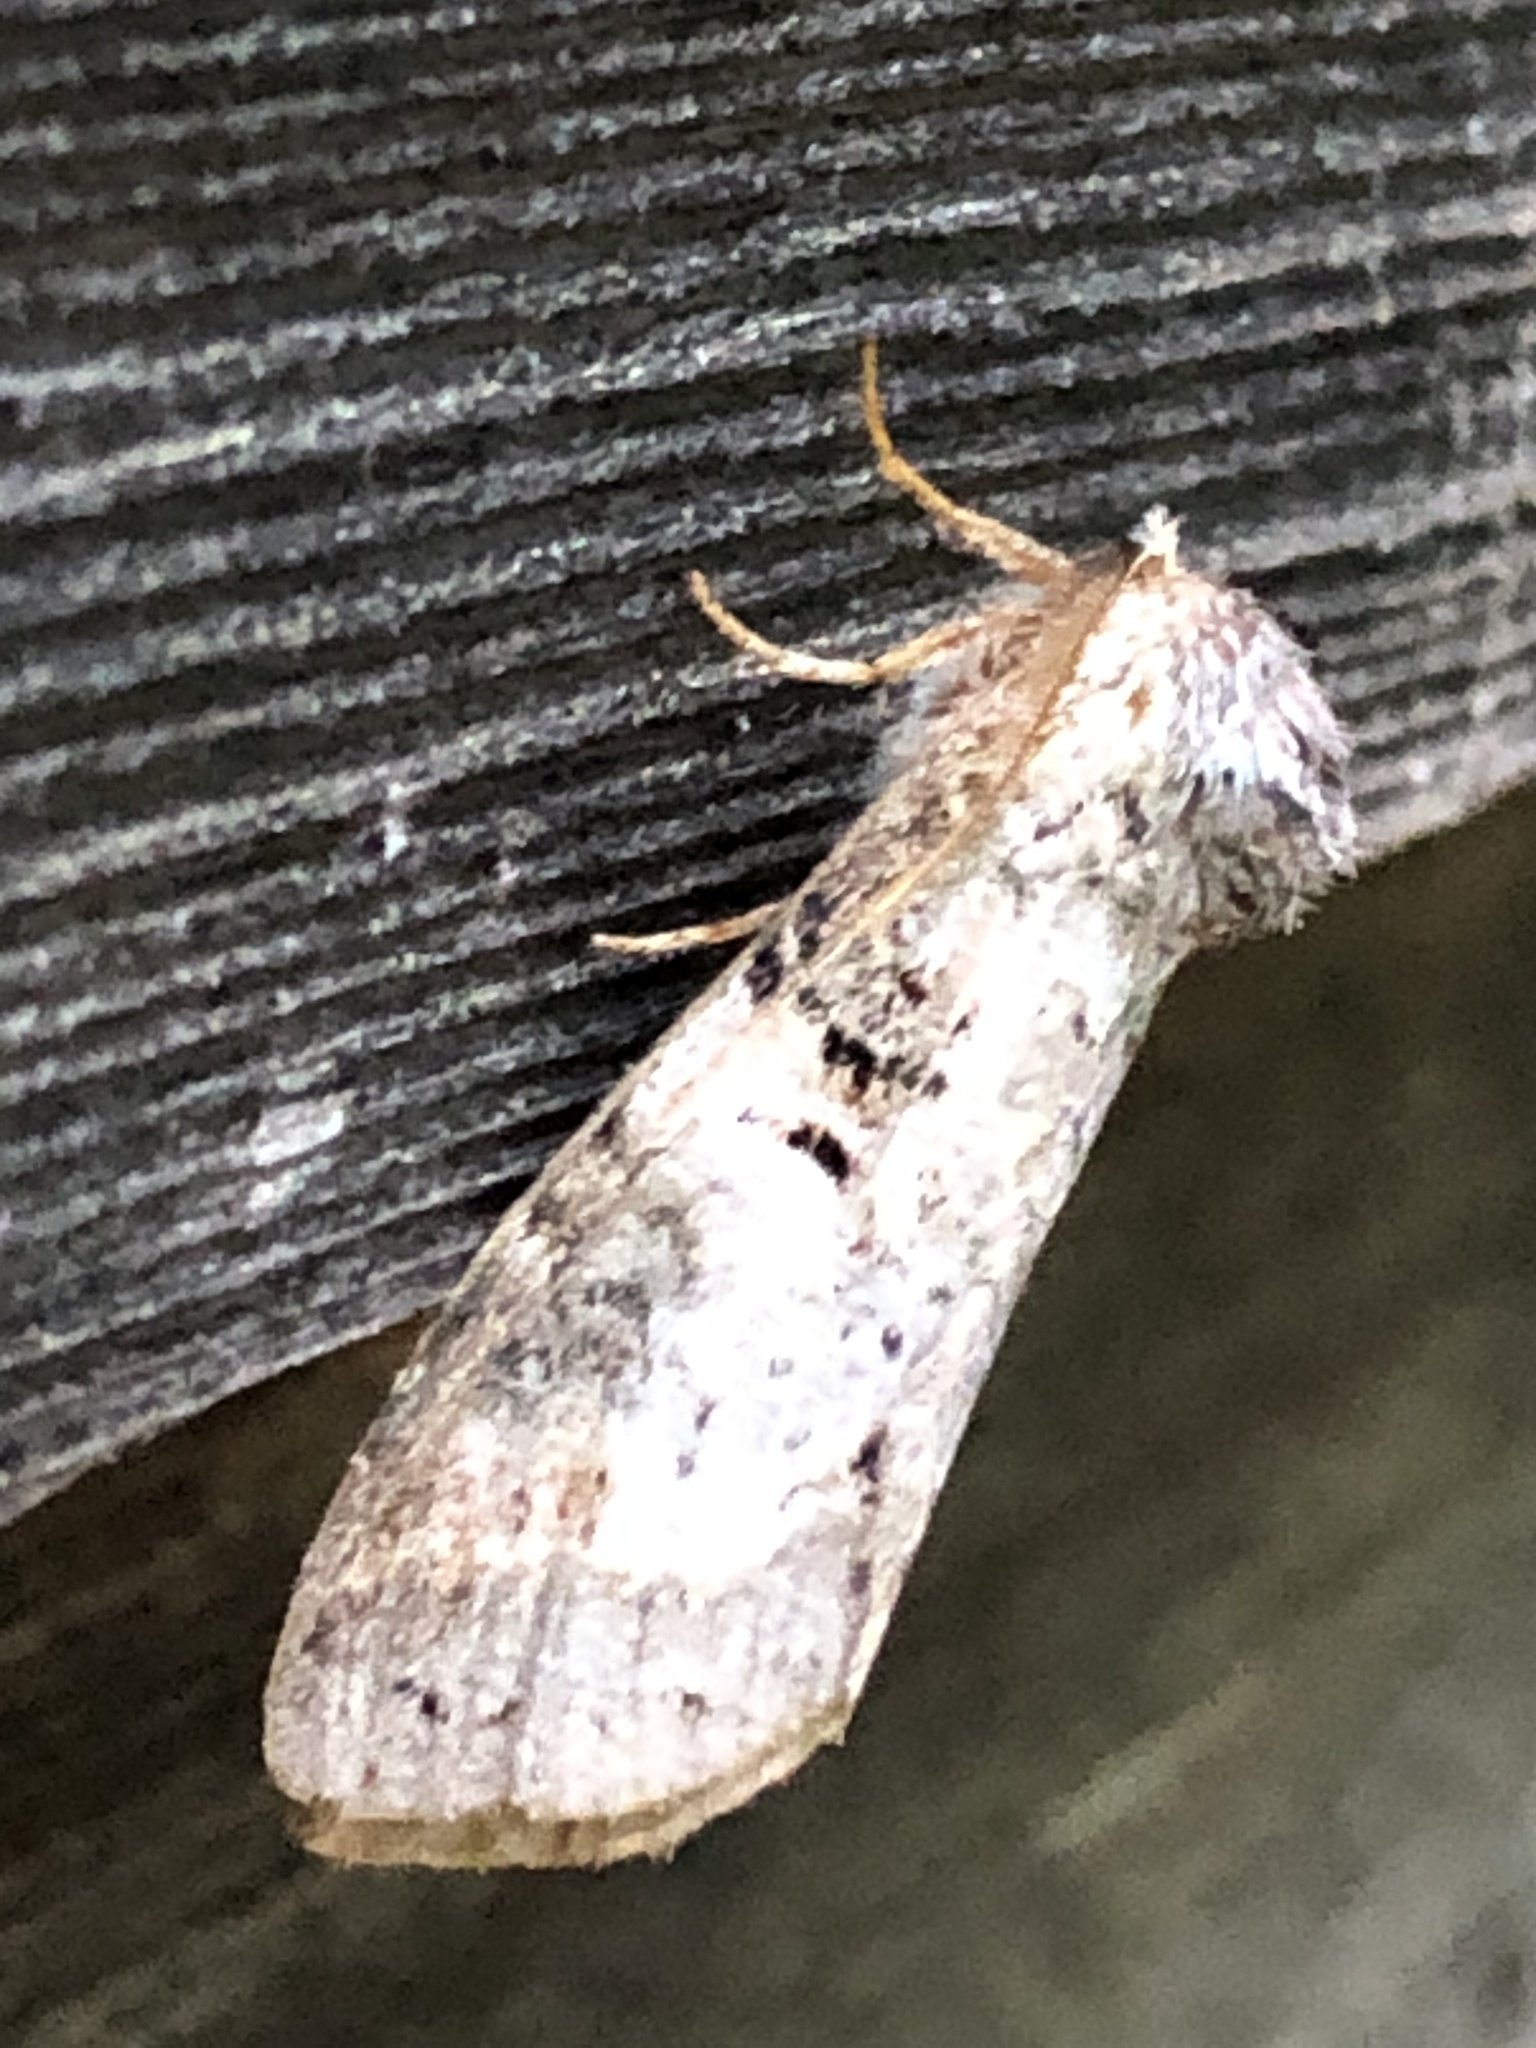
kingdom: Animalia
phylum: Arthropoda
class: Insecta
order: Lepidoptera
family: Notodontidae
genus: Ellida
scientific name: Ellida caniplaga
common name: Linden prominent
